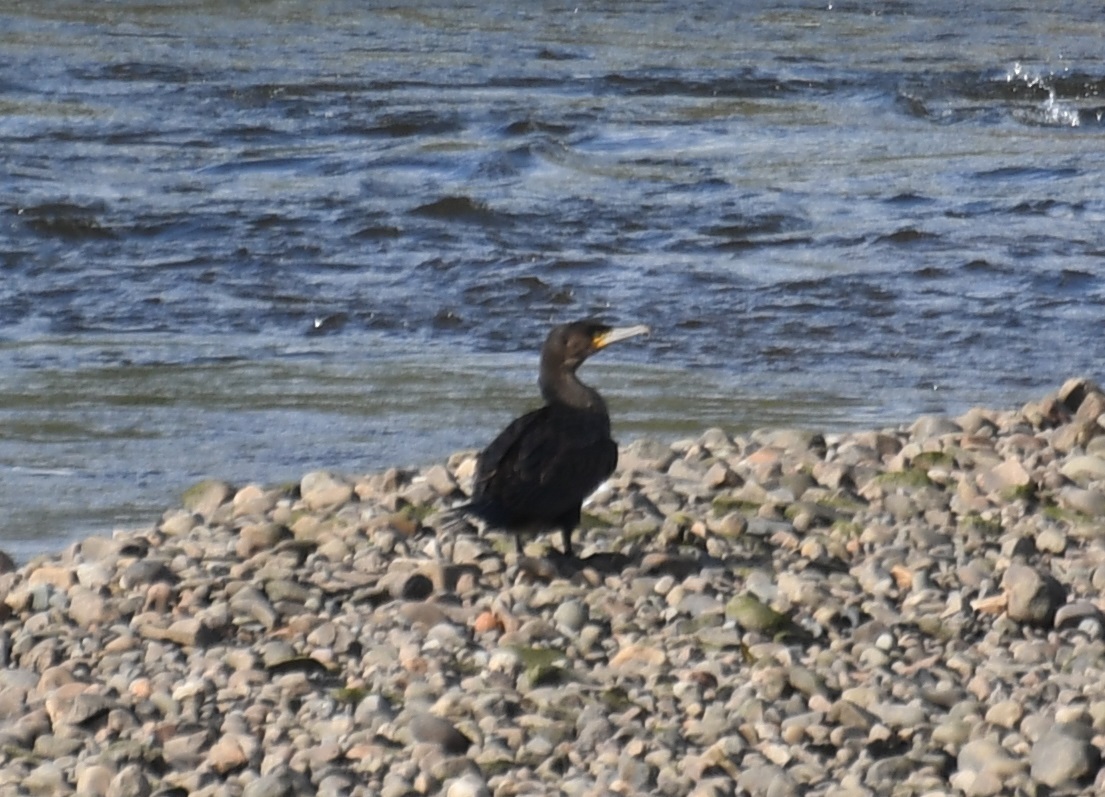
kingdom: Animalia
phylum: Chordata
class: Aves
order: Suliformes
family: Phalacrocoracidae
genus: Phalacrocorax
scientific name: Phalacrocorax carbo
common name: Great cormorant
